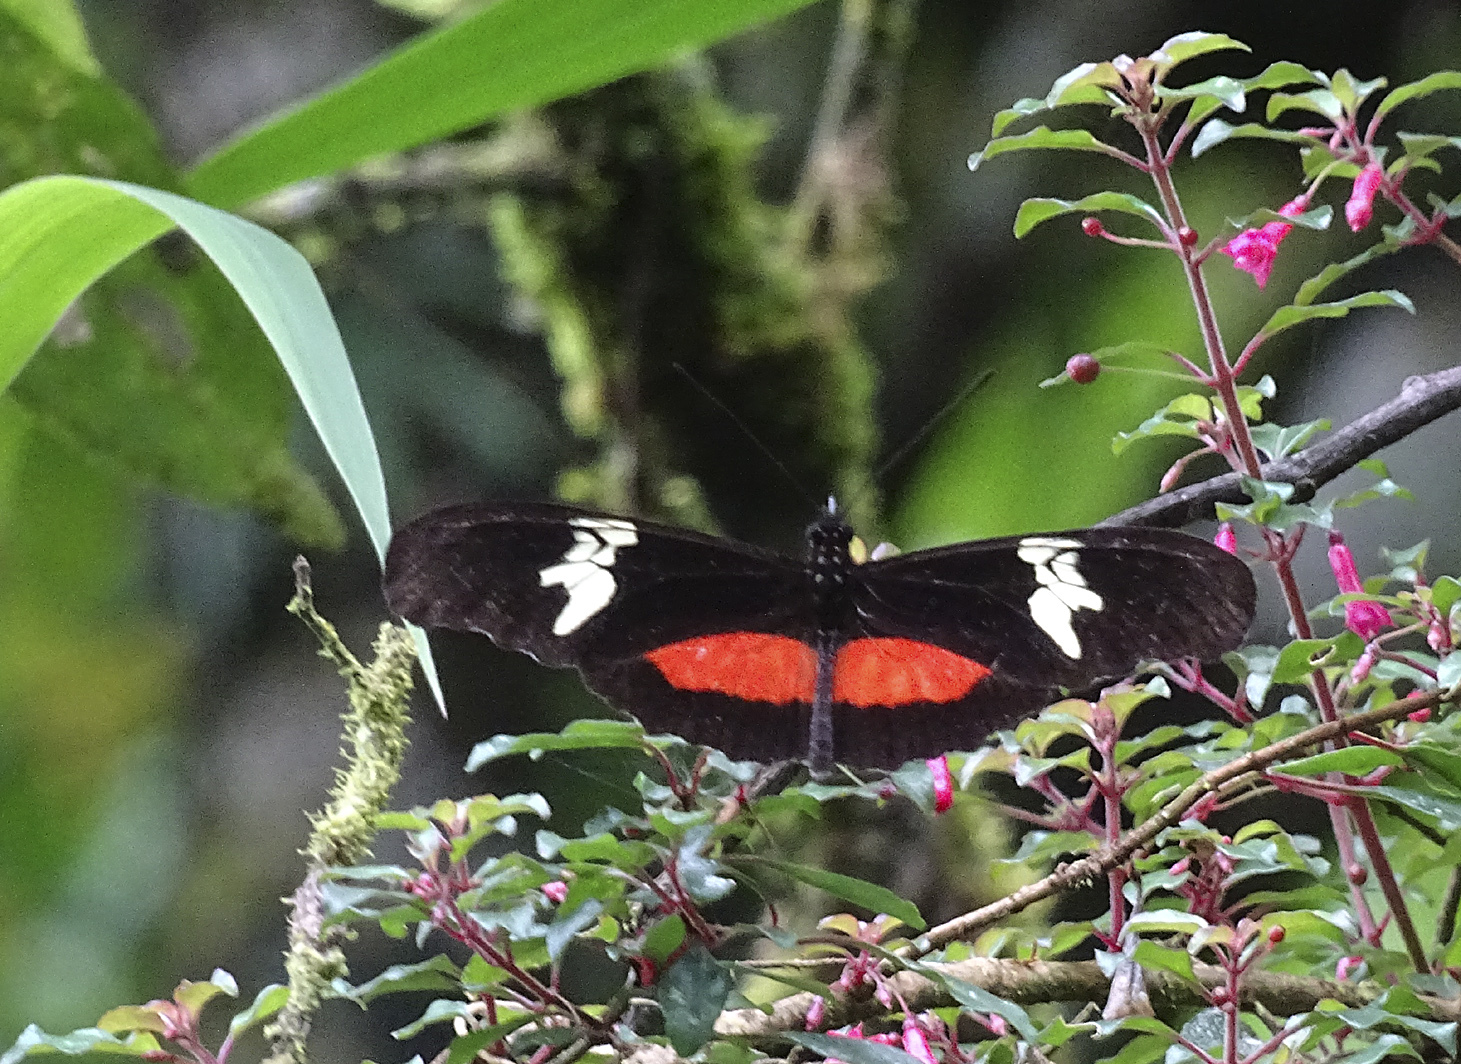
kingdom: Animalia
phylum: Arthropoda
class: Insecta
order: Lepidoptera
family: Nymphalidae
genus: Heliconius
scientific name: Heliconius hortense
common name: Mexican longwing
